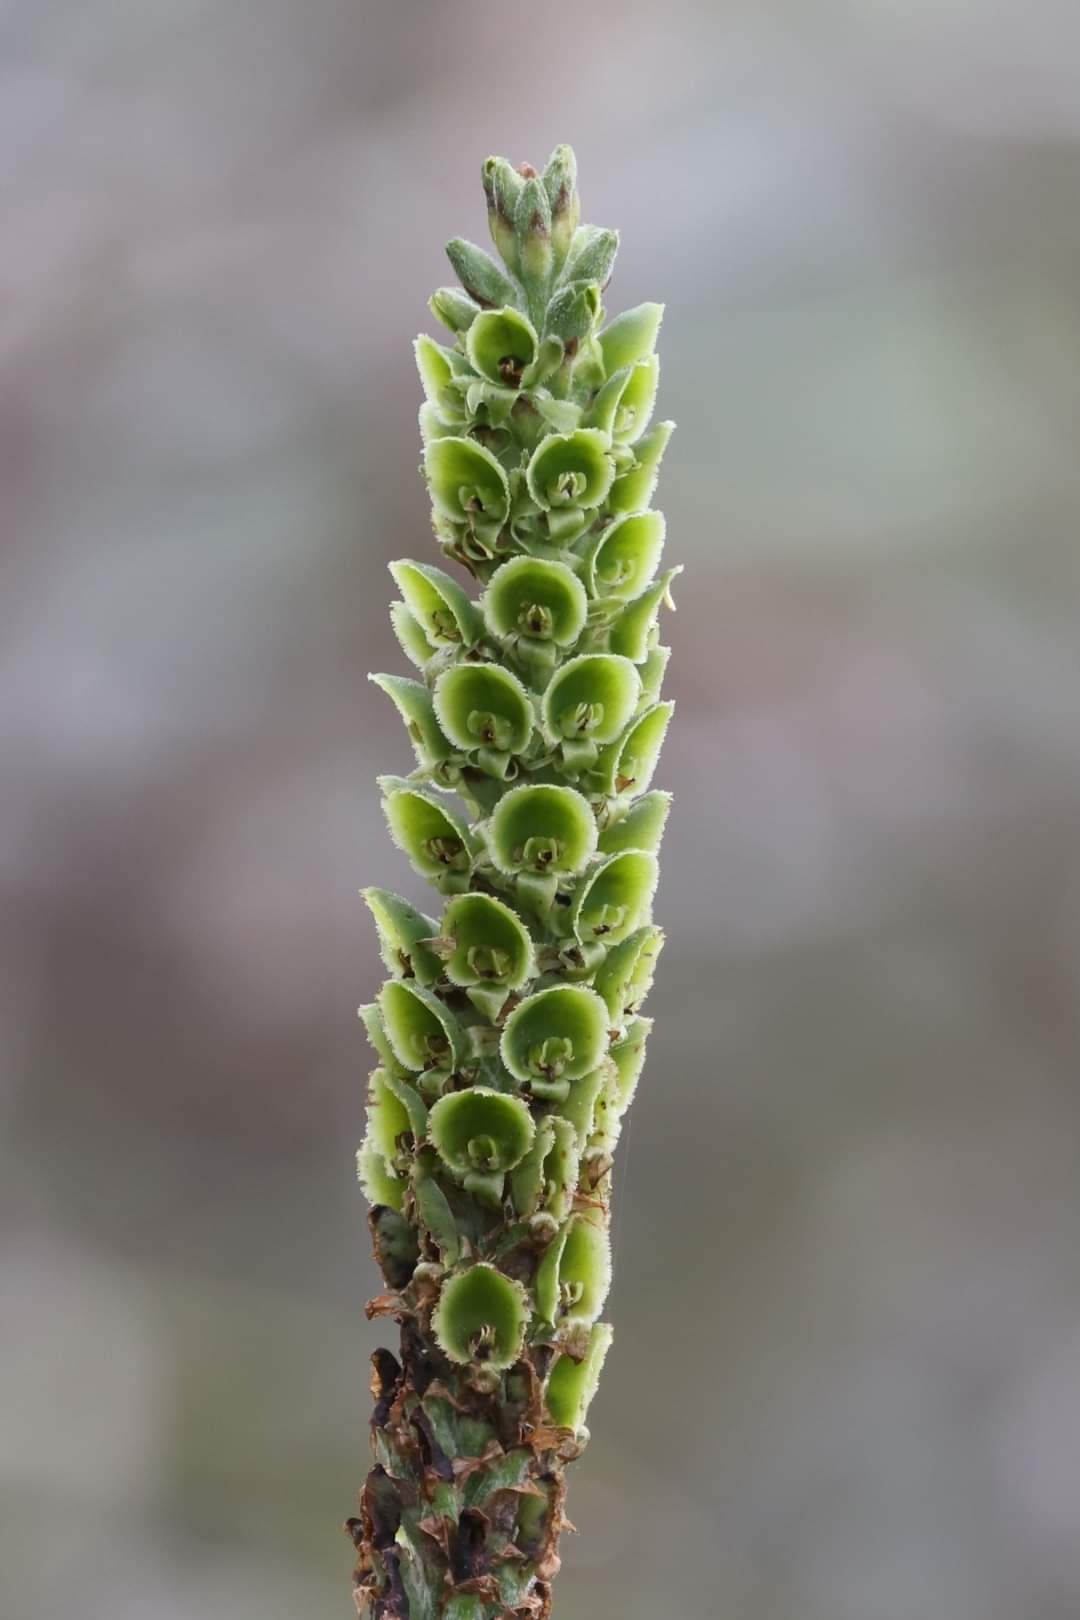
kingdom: Plantae
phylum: Tracheophyta
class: Liliopsida
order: Asparagales
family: Orchidaceae
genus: Altensteinia
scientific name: Altensteinia fimbriata
